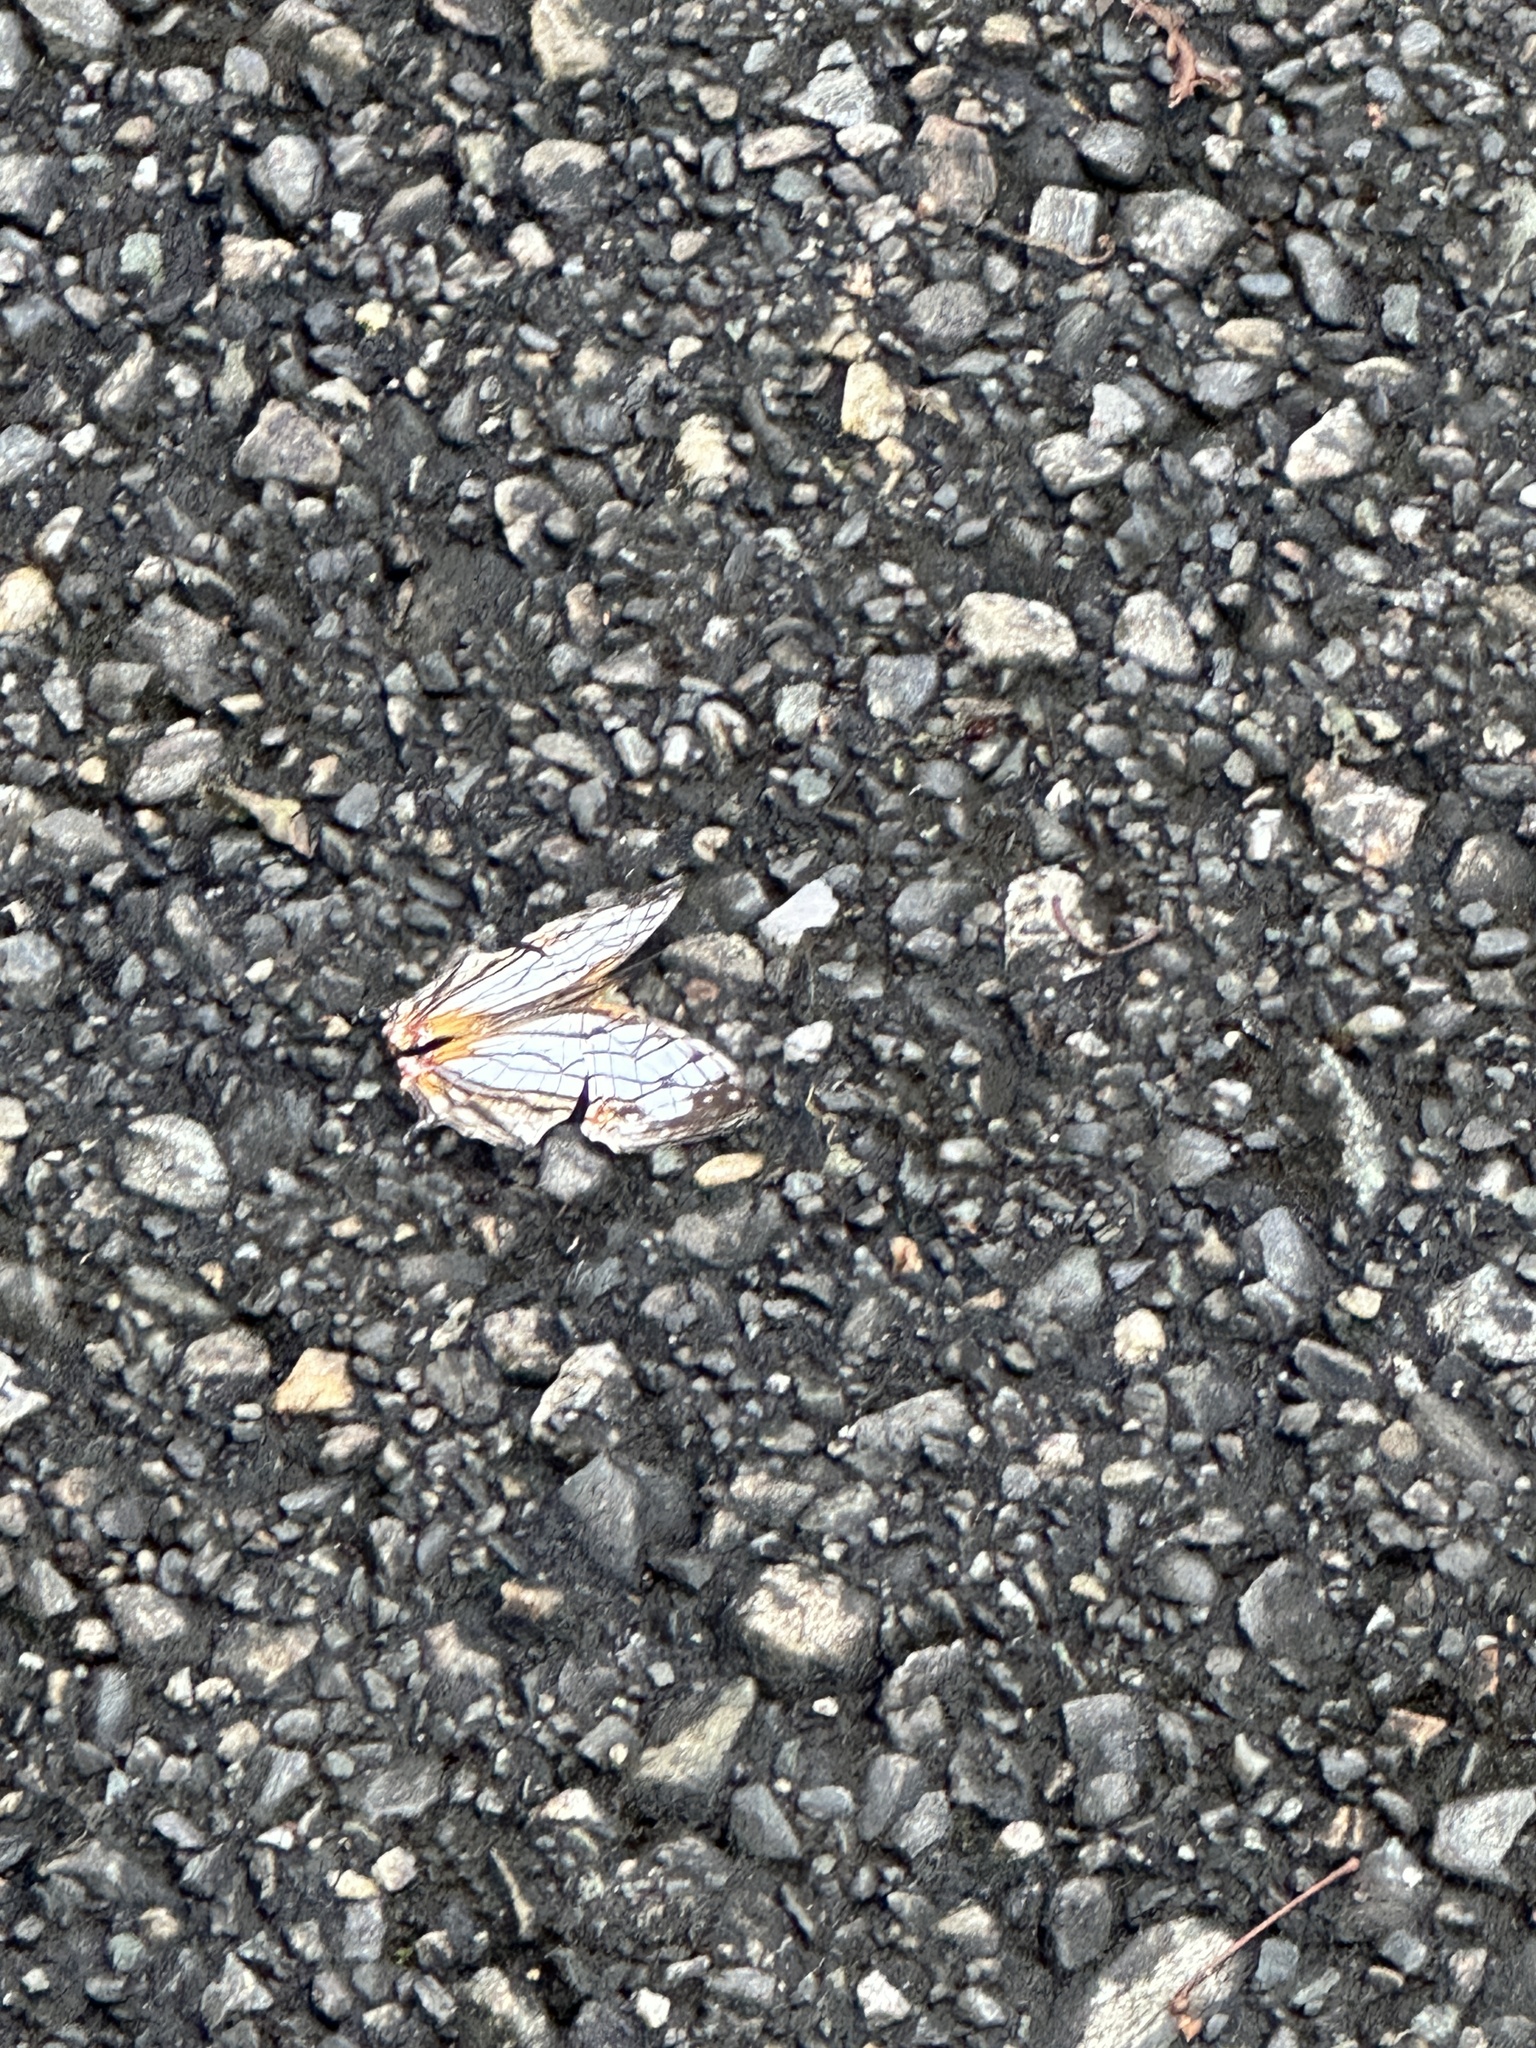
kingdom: Animalia
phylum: Arthropoda
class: Insecta
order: Lepidoptera
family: Nymphalidae
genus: Cyrestis
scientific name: Cyrestis thyodamas
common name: Common mapwing
